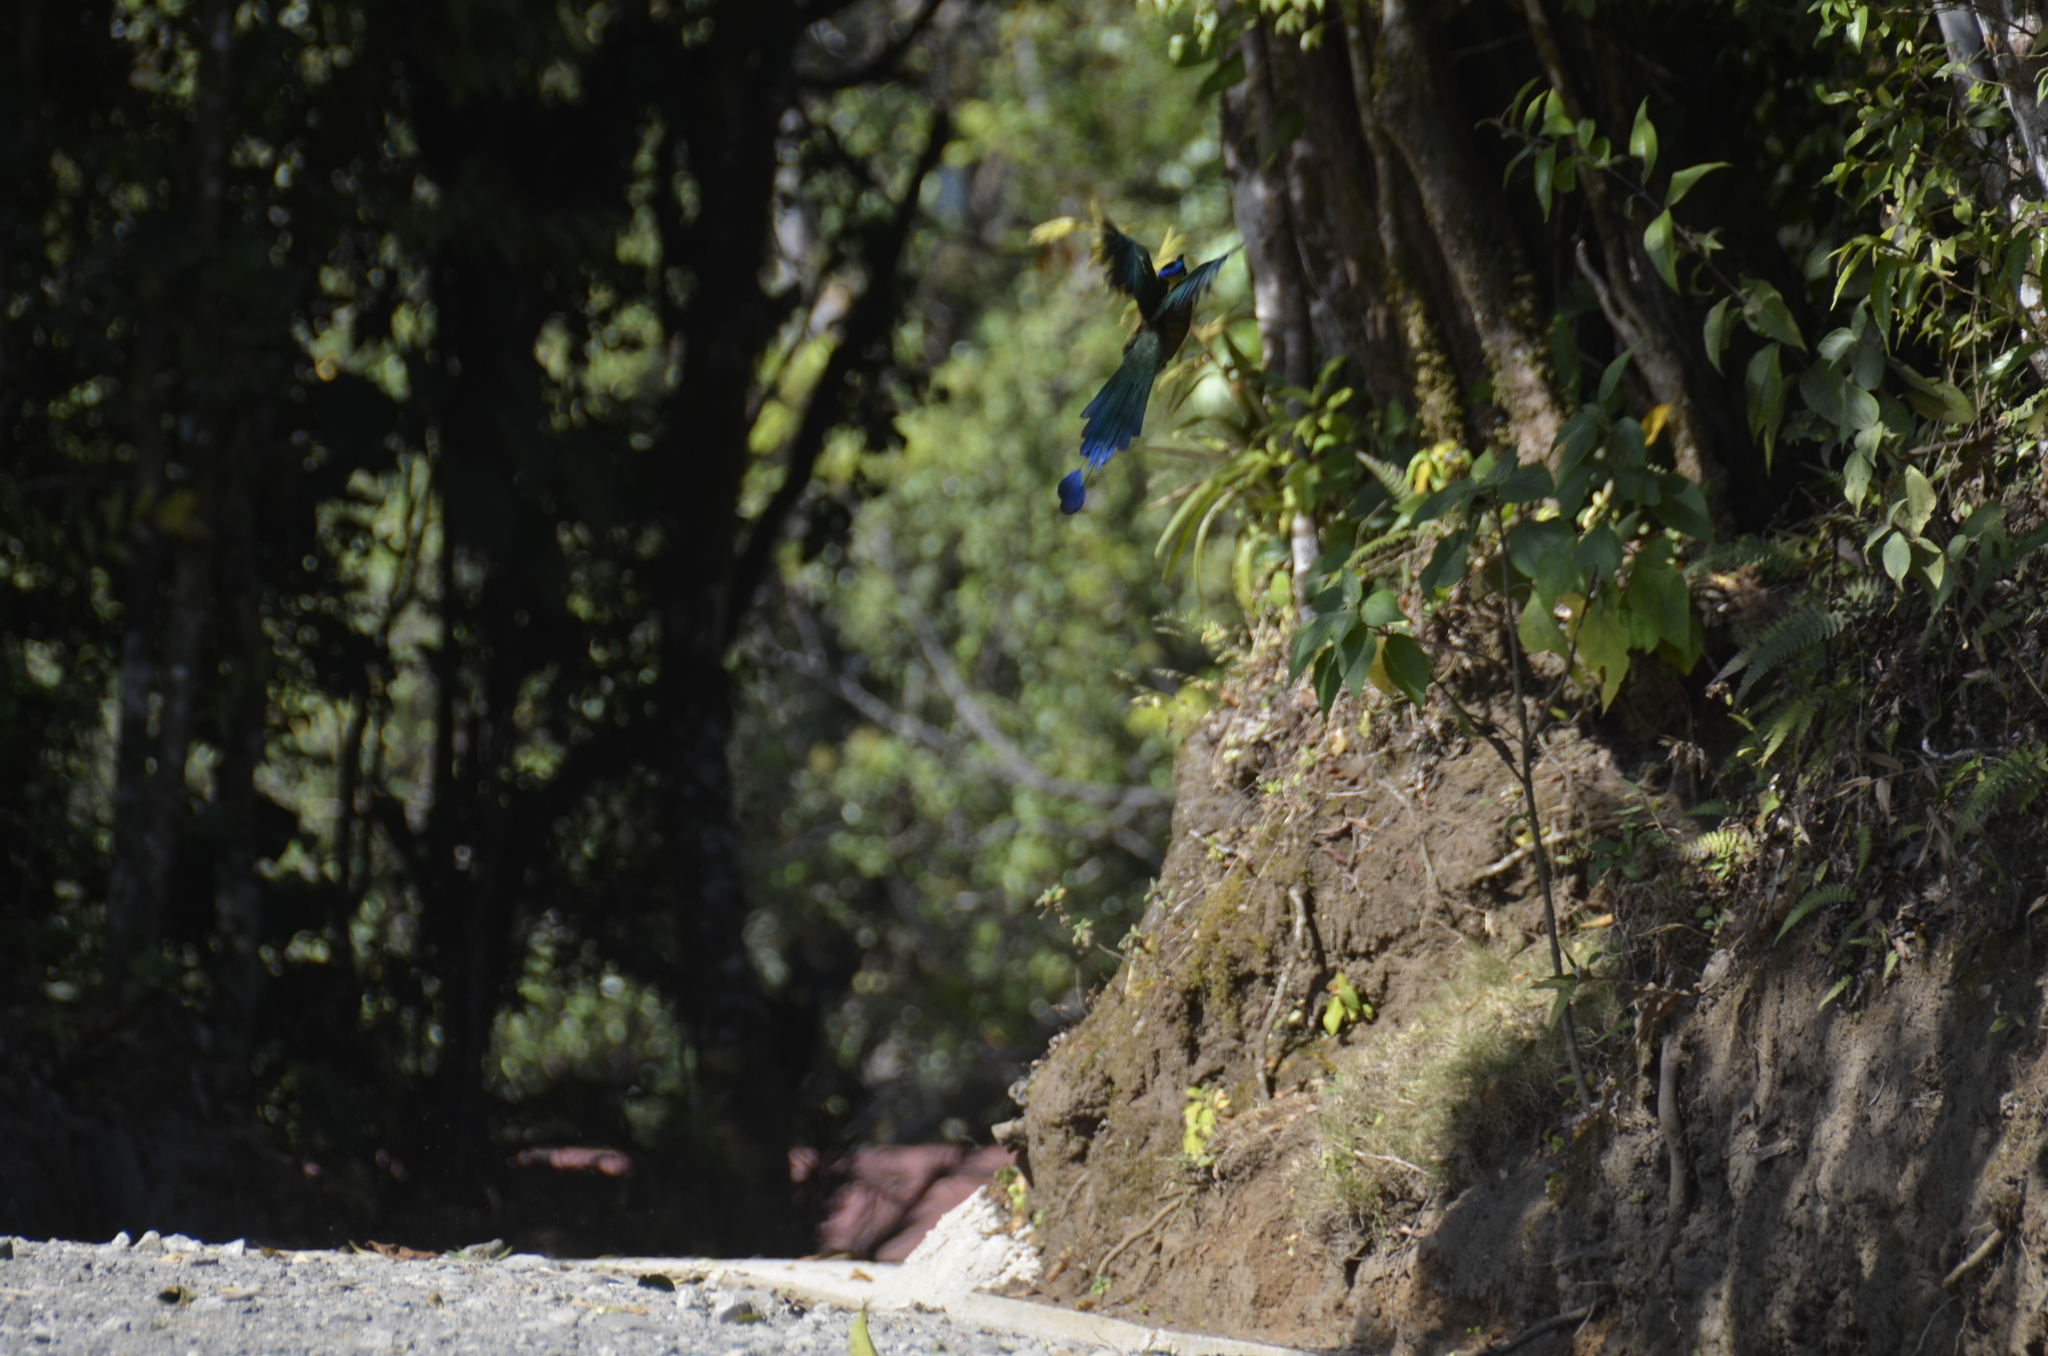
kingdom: Animalia
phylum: Chordata
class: Aves
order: Coraciiformes
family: Momotidae
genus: Momotus
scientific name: Momotus lessonii
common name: Lesson's motmot
